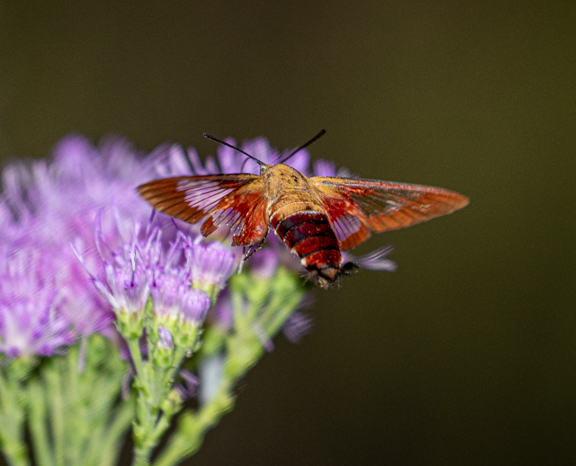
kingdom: Animalia
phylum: Arthropoda
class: Insecta
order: Lepidoptera
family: Sphingidae
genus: Hemaris
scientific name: Hemaris thysbe
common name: Common clear-wing
